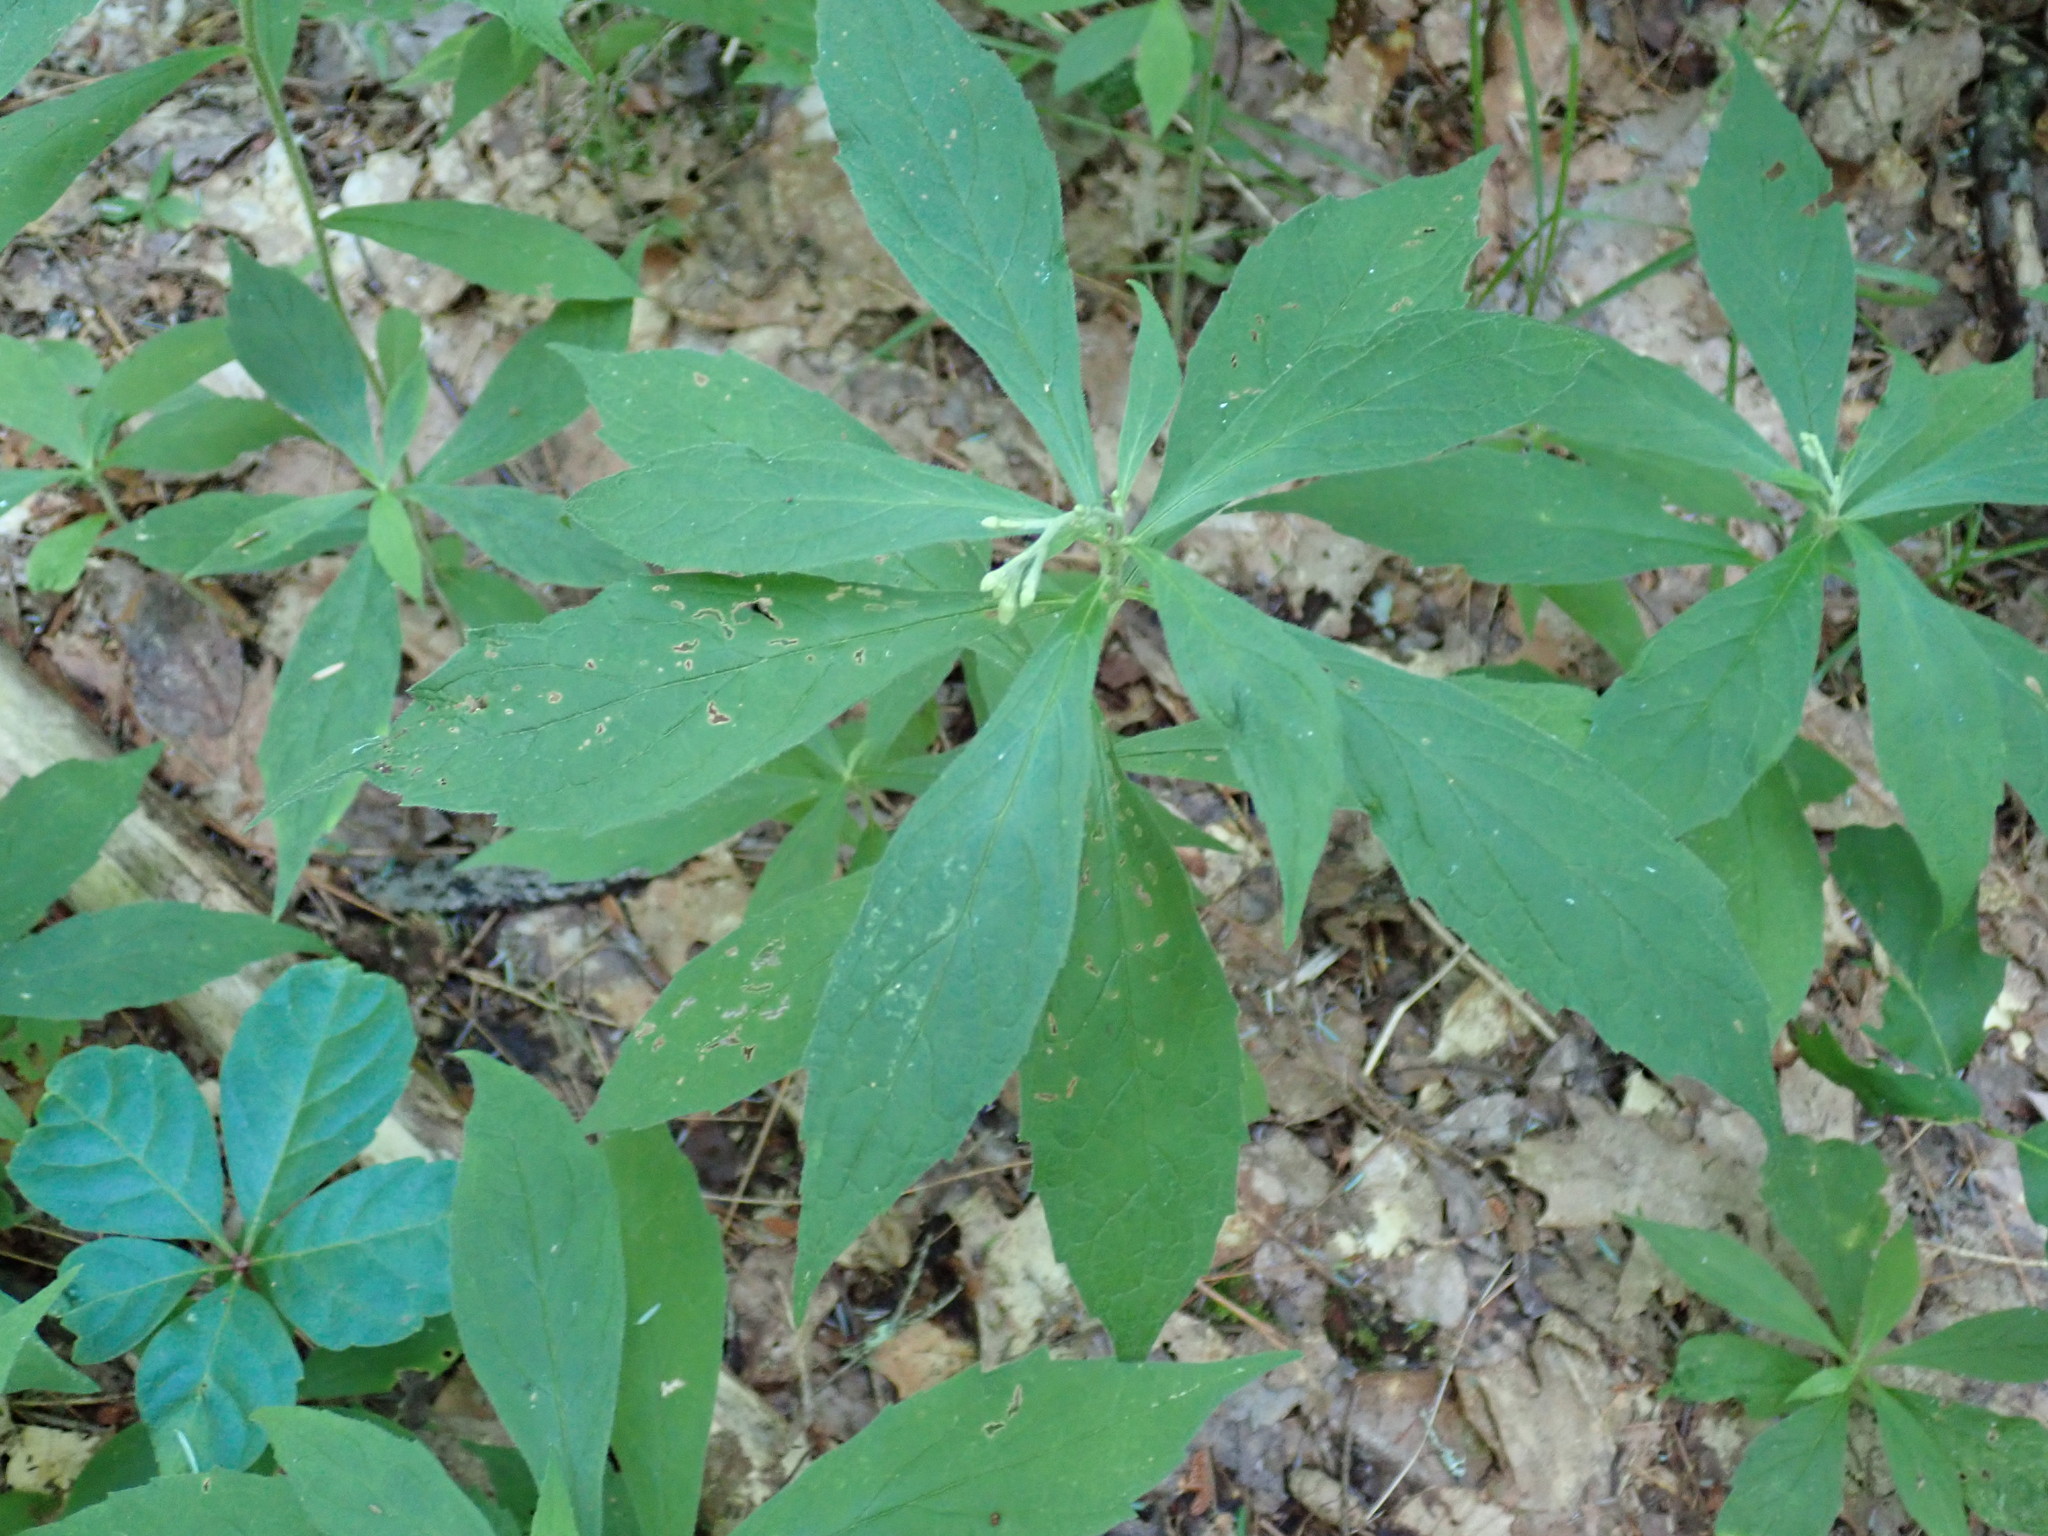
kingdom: Plantae
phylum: Tracheophyta
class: Magnoliopsida
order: Asterales
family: Asteraceae
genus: Oclemena
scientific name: Oclemena acuminata
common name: Mountain aster
